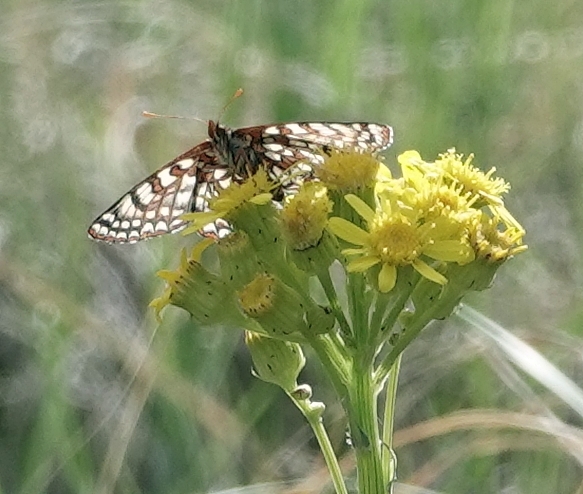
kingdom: Animalia
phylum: Arthropoda
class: Insecta
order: Lepidoptera
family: Nymphalidae
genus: Occidryas
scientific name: Occidryas anicia
